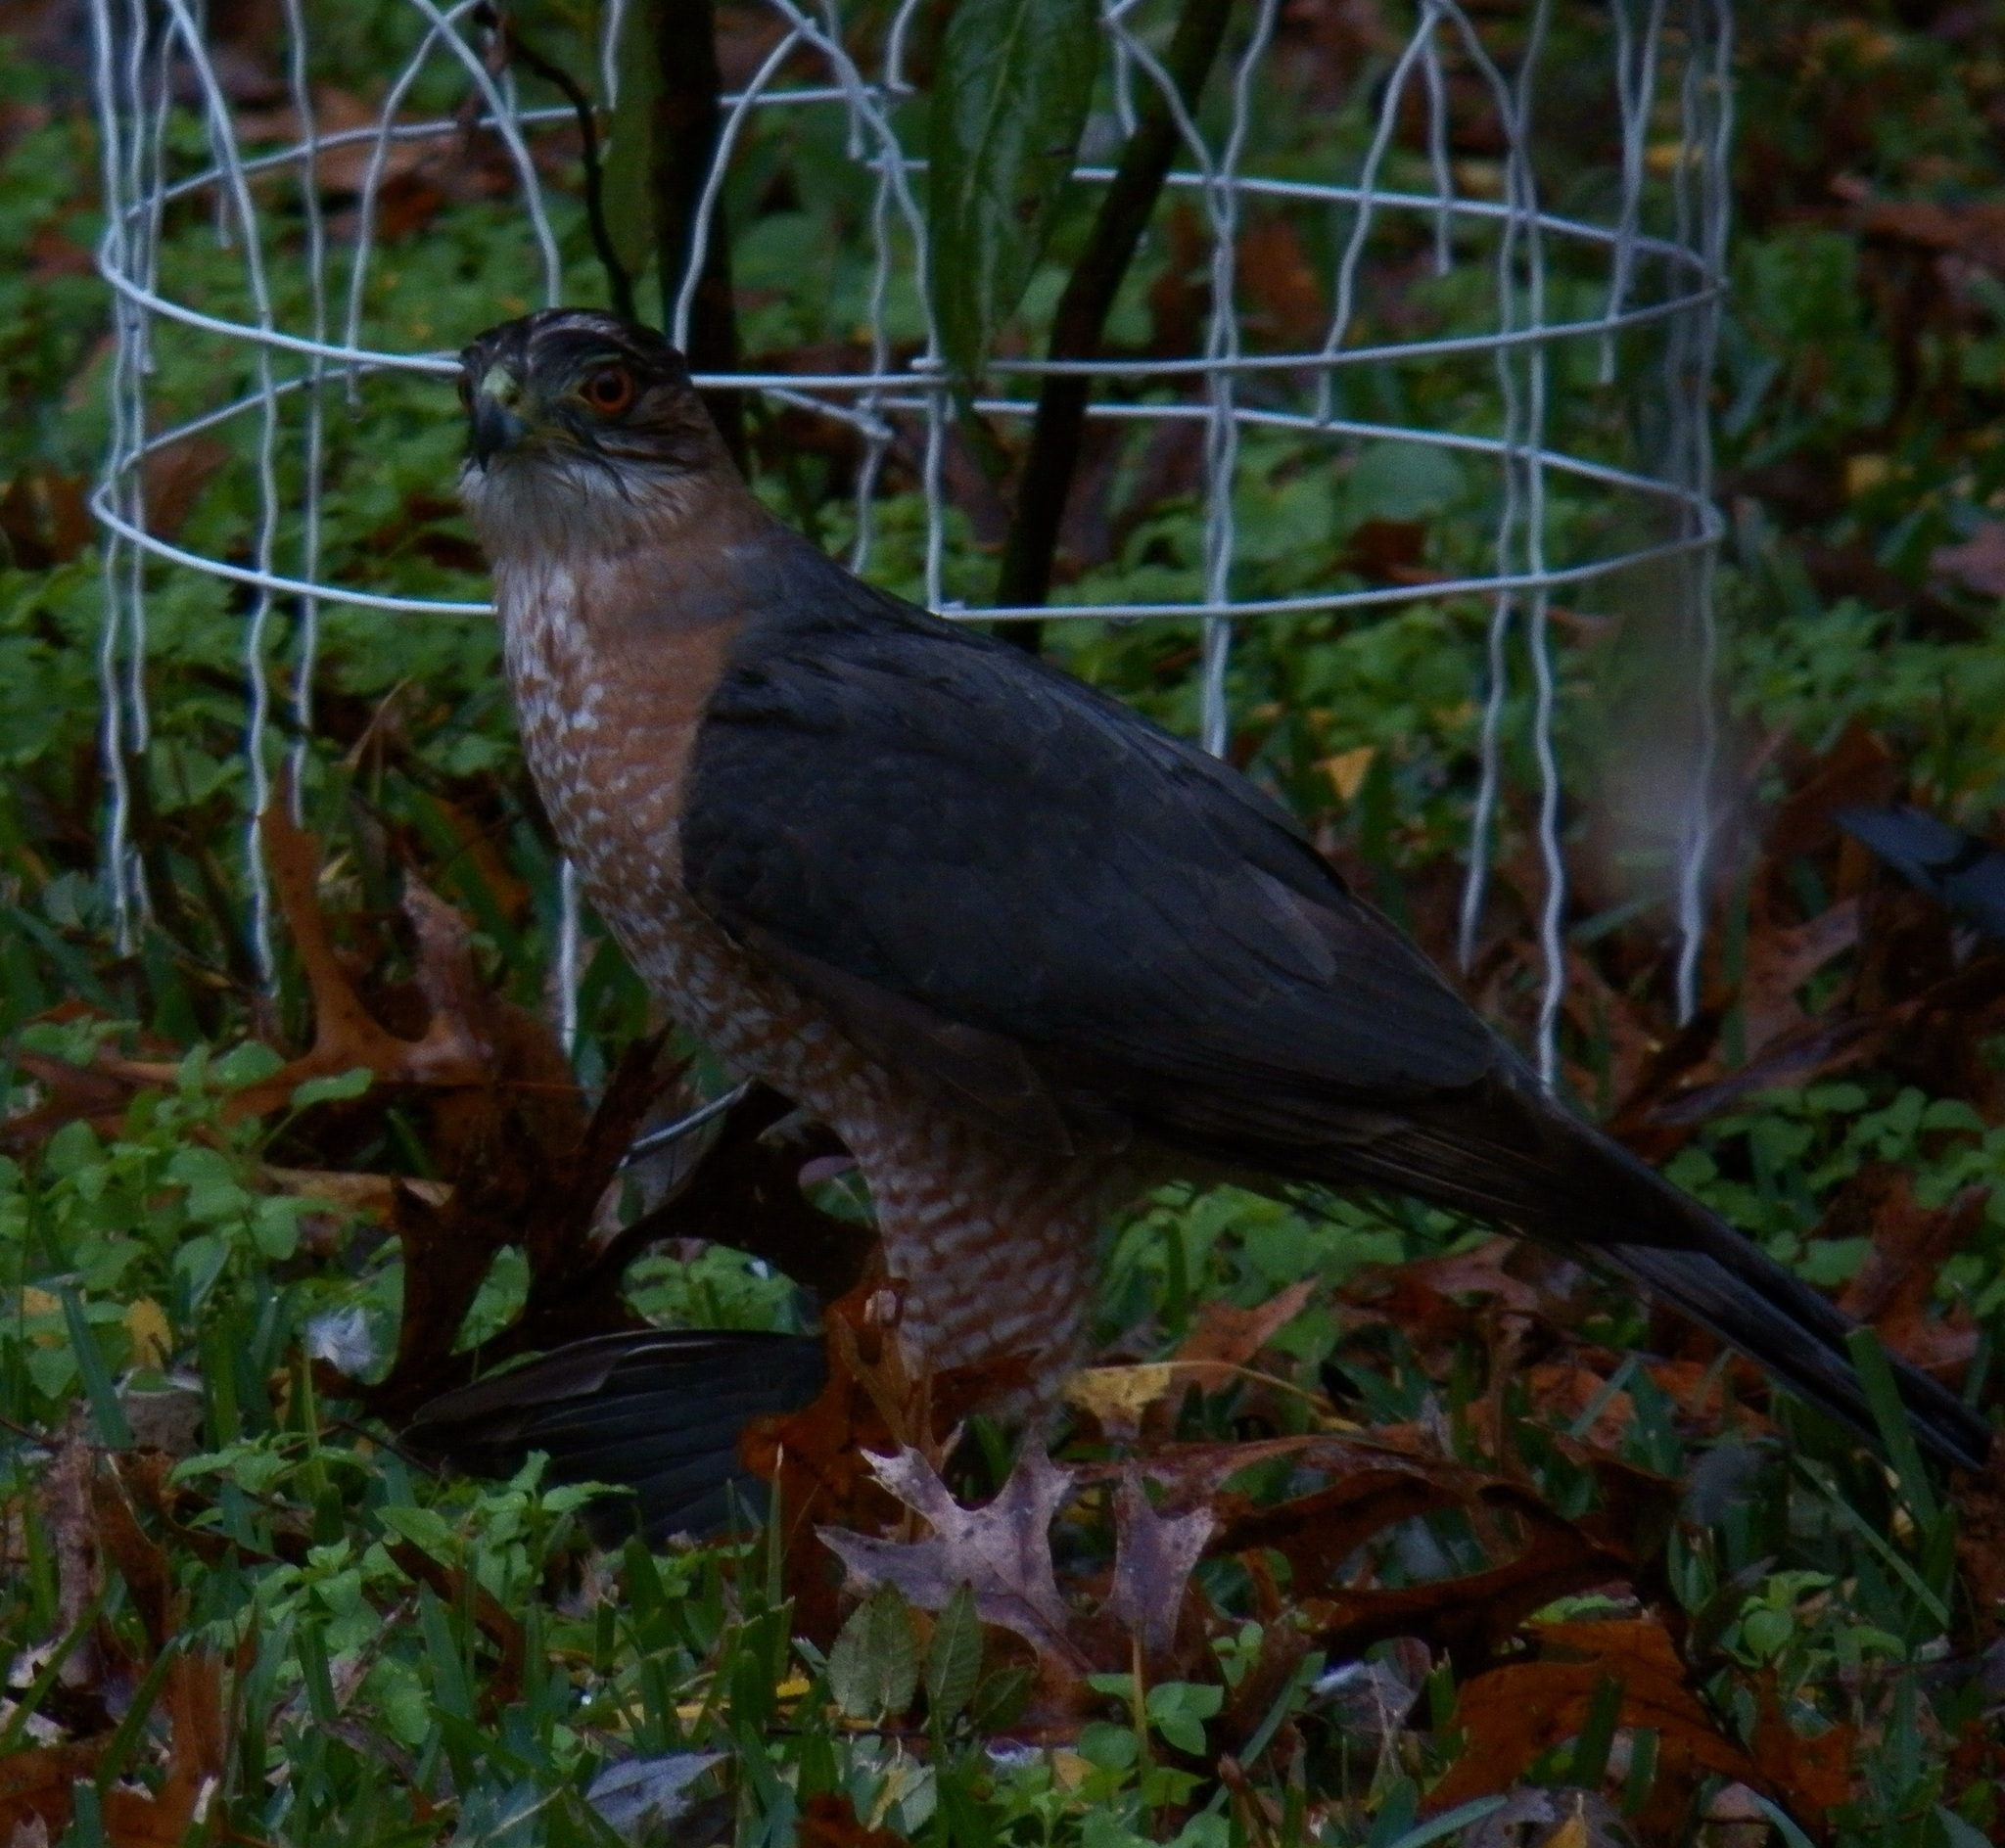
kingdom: Animalia
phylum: Chordata
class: Aves
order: Accipitriformes
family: Accipitridae
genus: Accipiter
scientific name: Accipiter cooperii
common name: Cooper's hawk
